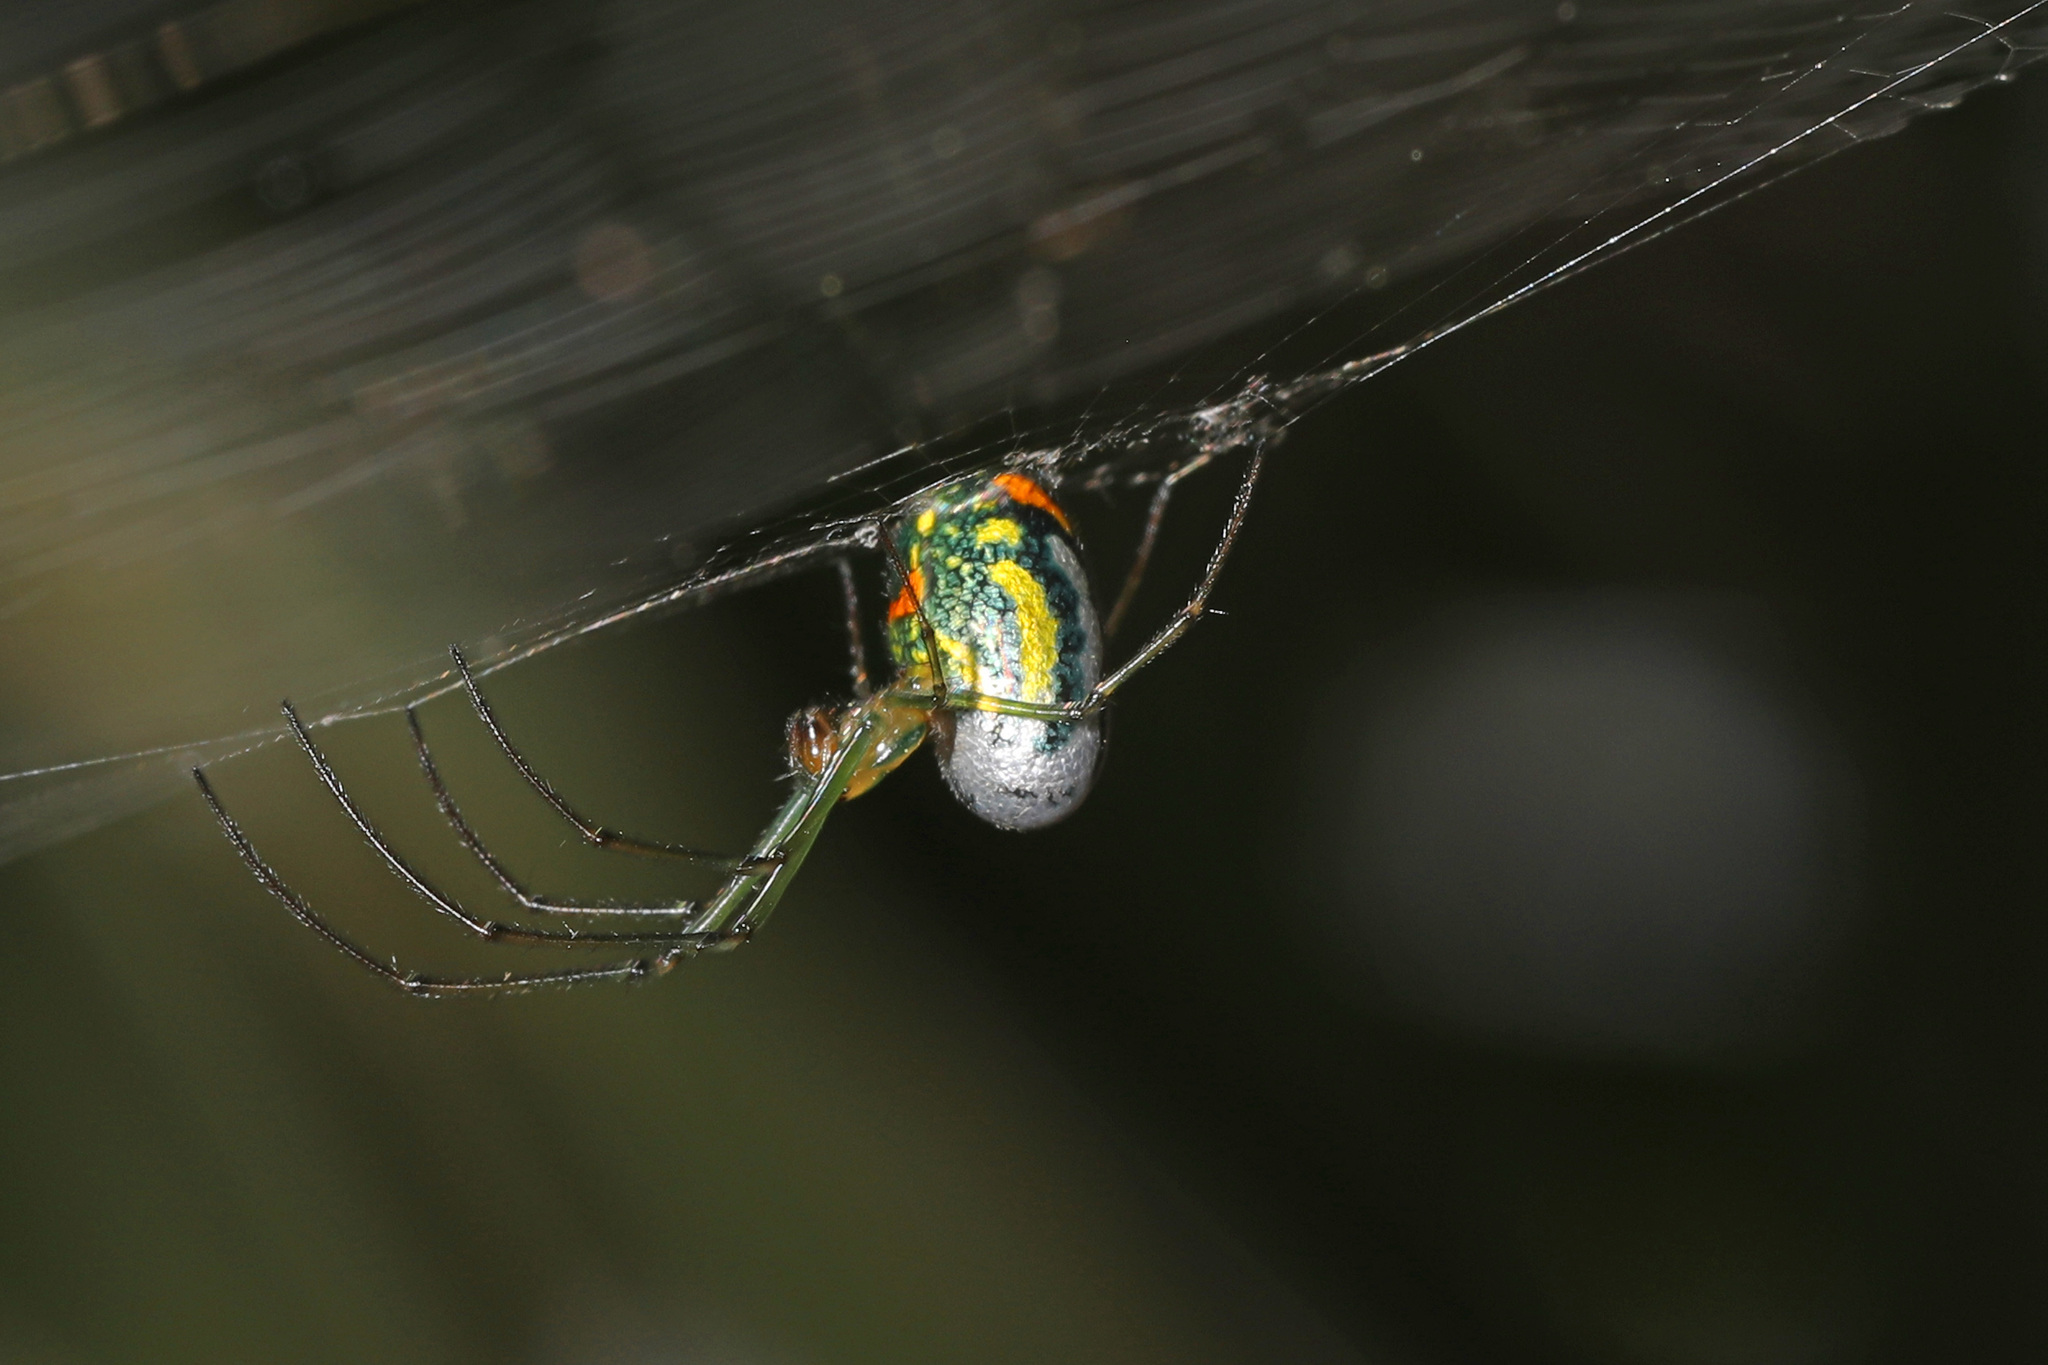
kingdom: Animalia
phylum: Arthropoda
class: Arachnida
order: Araneae
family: Tetragnathidae
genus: Leucauge
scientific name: Leucauge argyrobapta
